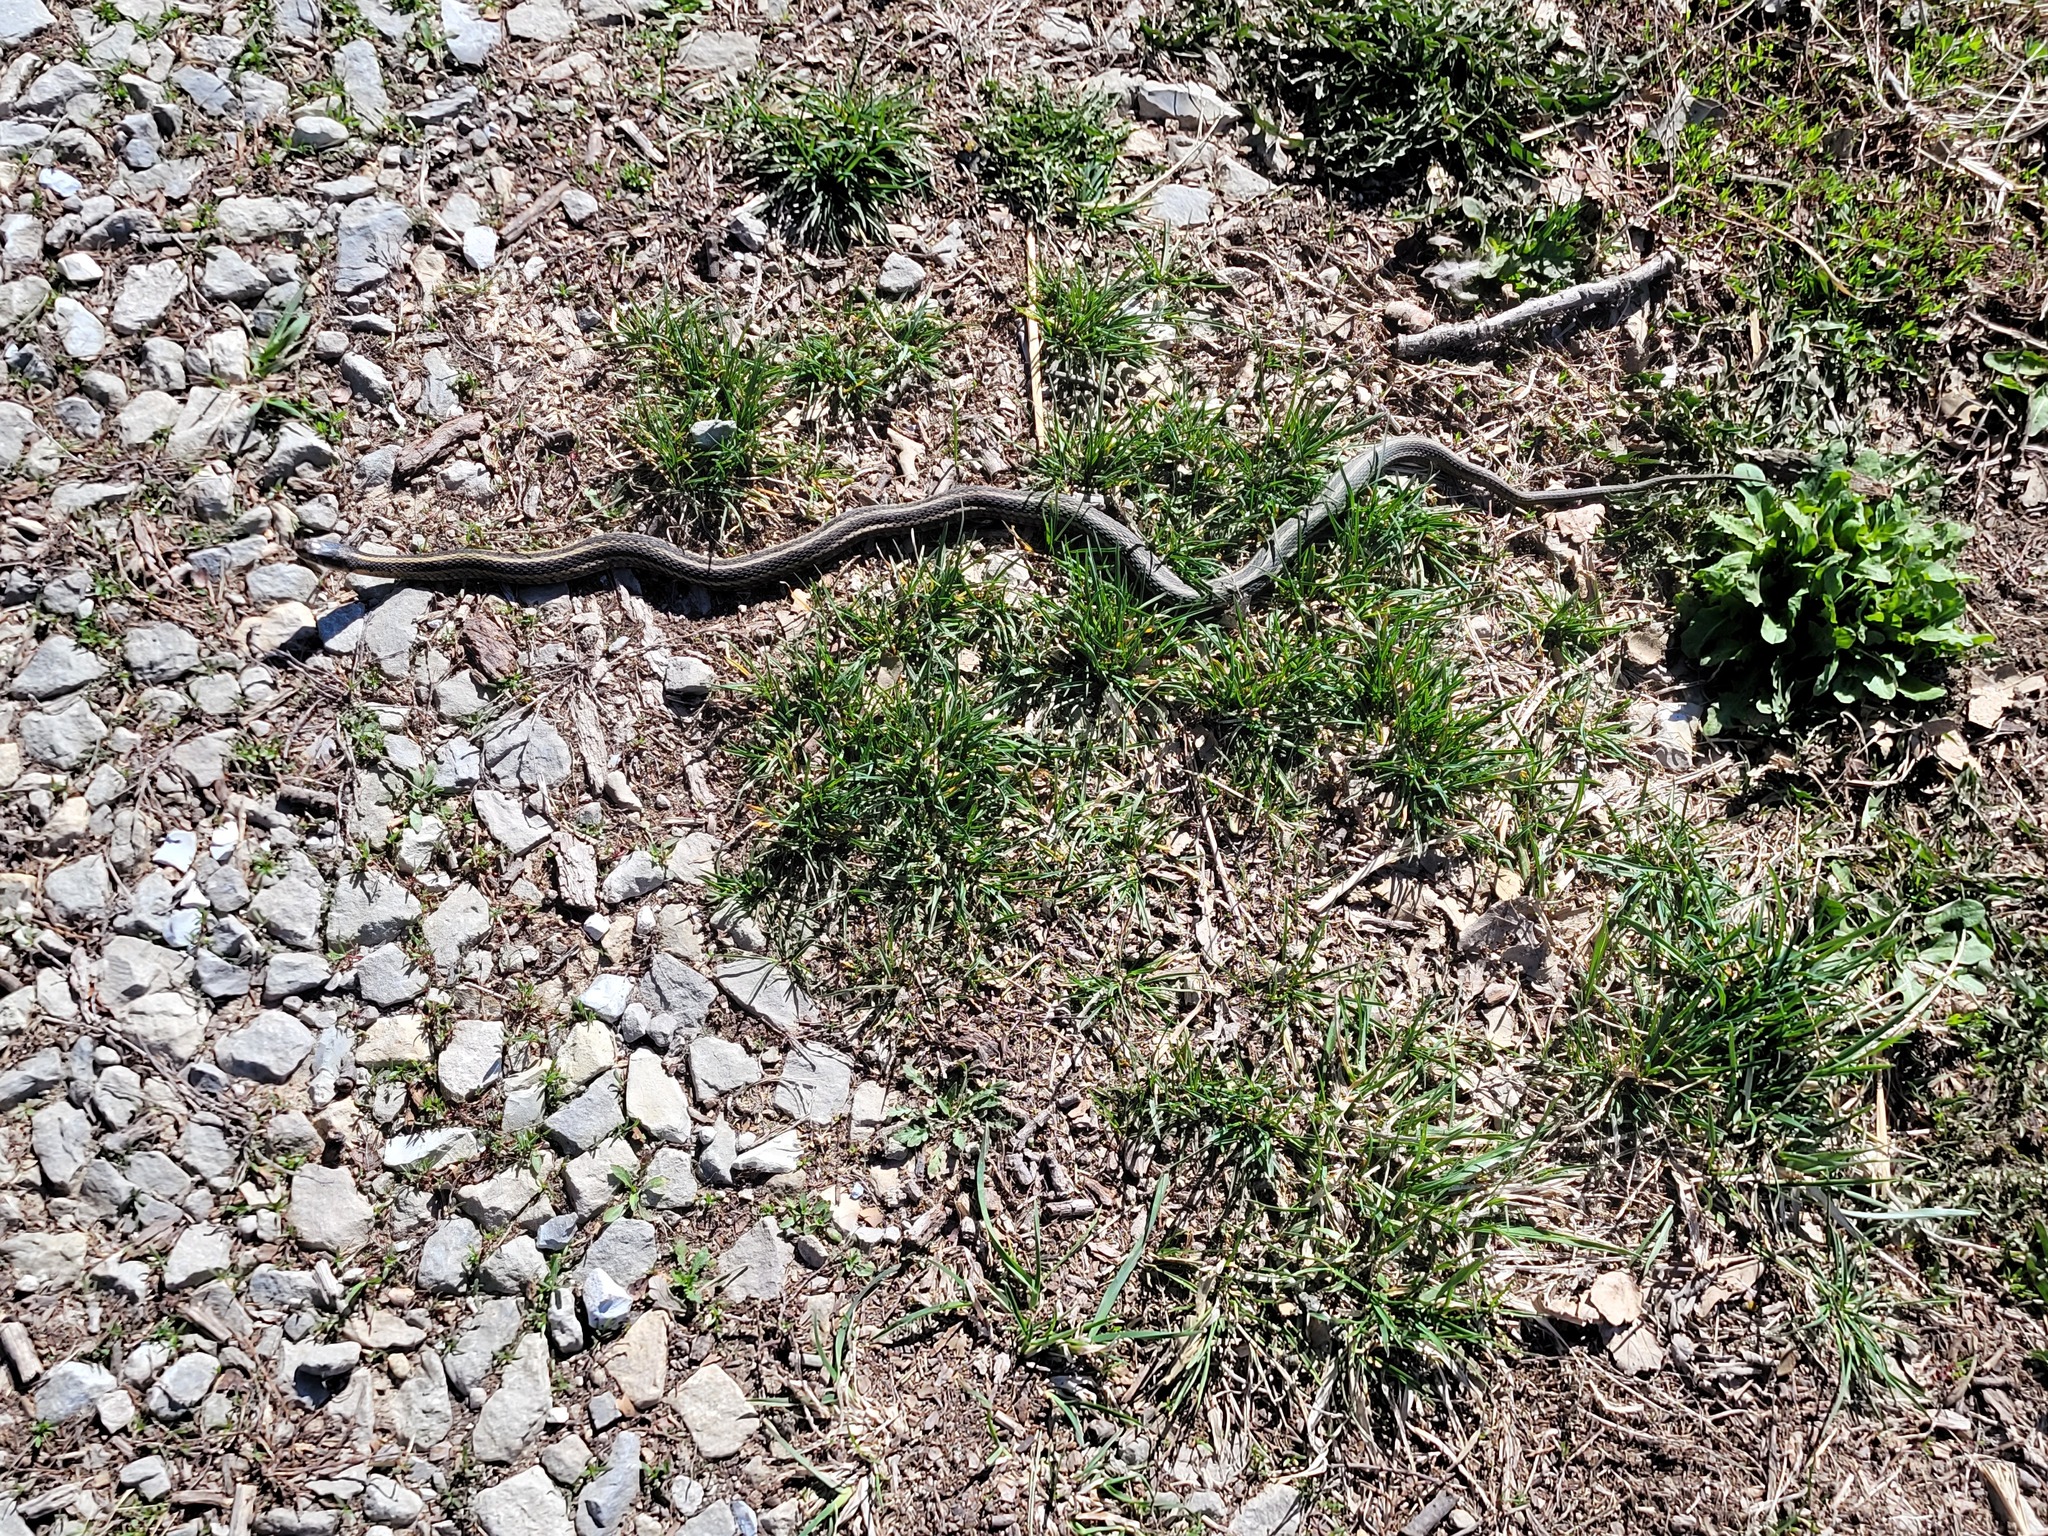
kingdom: Animalia
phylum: Chordata
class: Squamata
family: Colubridae
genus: Thamnophis
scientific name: Thamnophis sirtalis
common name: Common garter snake
